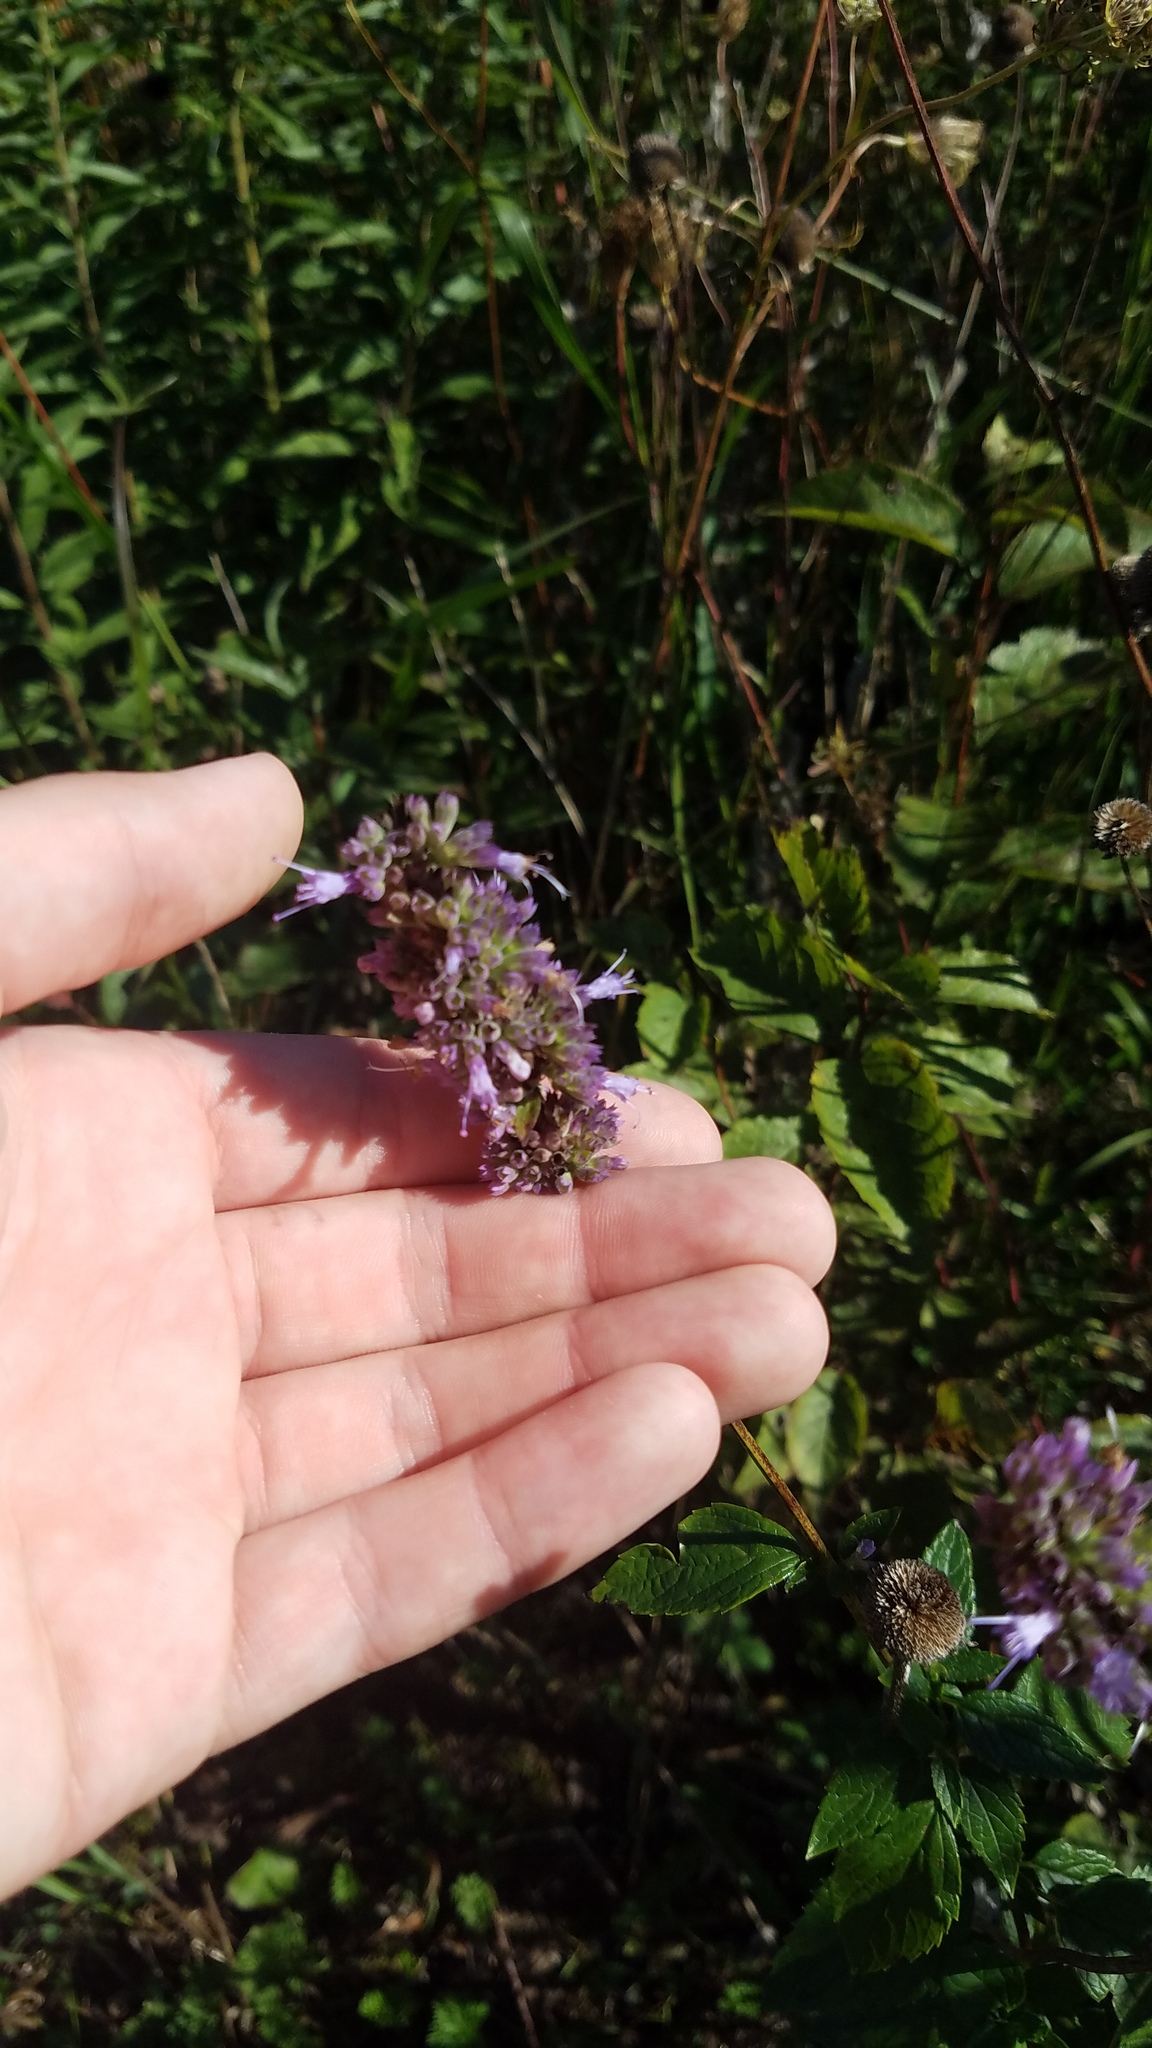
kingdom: Plantae
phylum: Tracheophyta
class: Magnoliopsida
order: Lamiales
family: Lamiaceae
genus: Agastache
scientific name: Agastache foeniculum
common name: Anise hyssop
